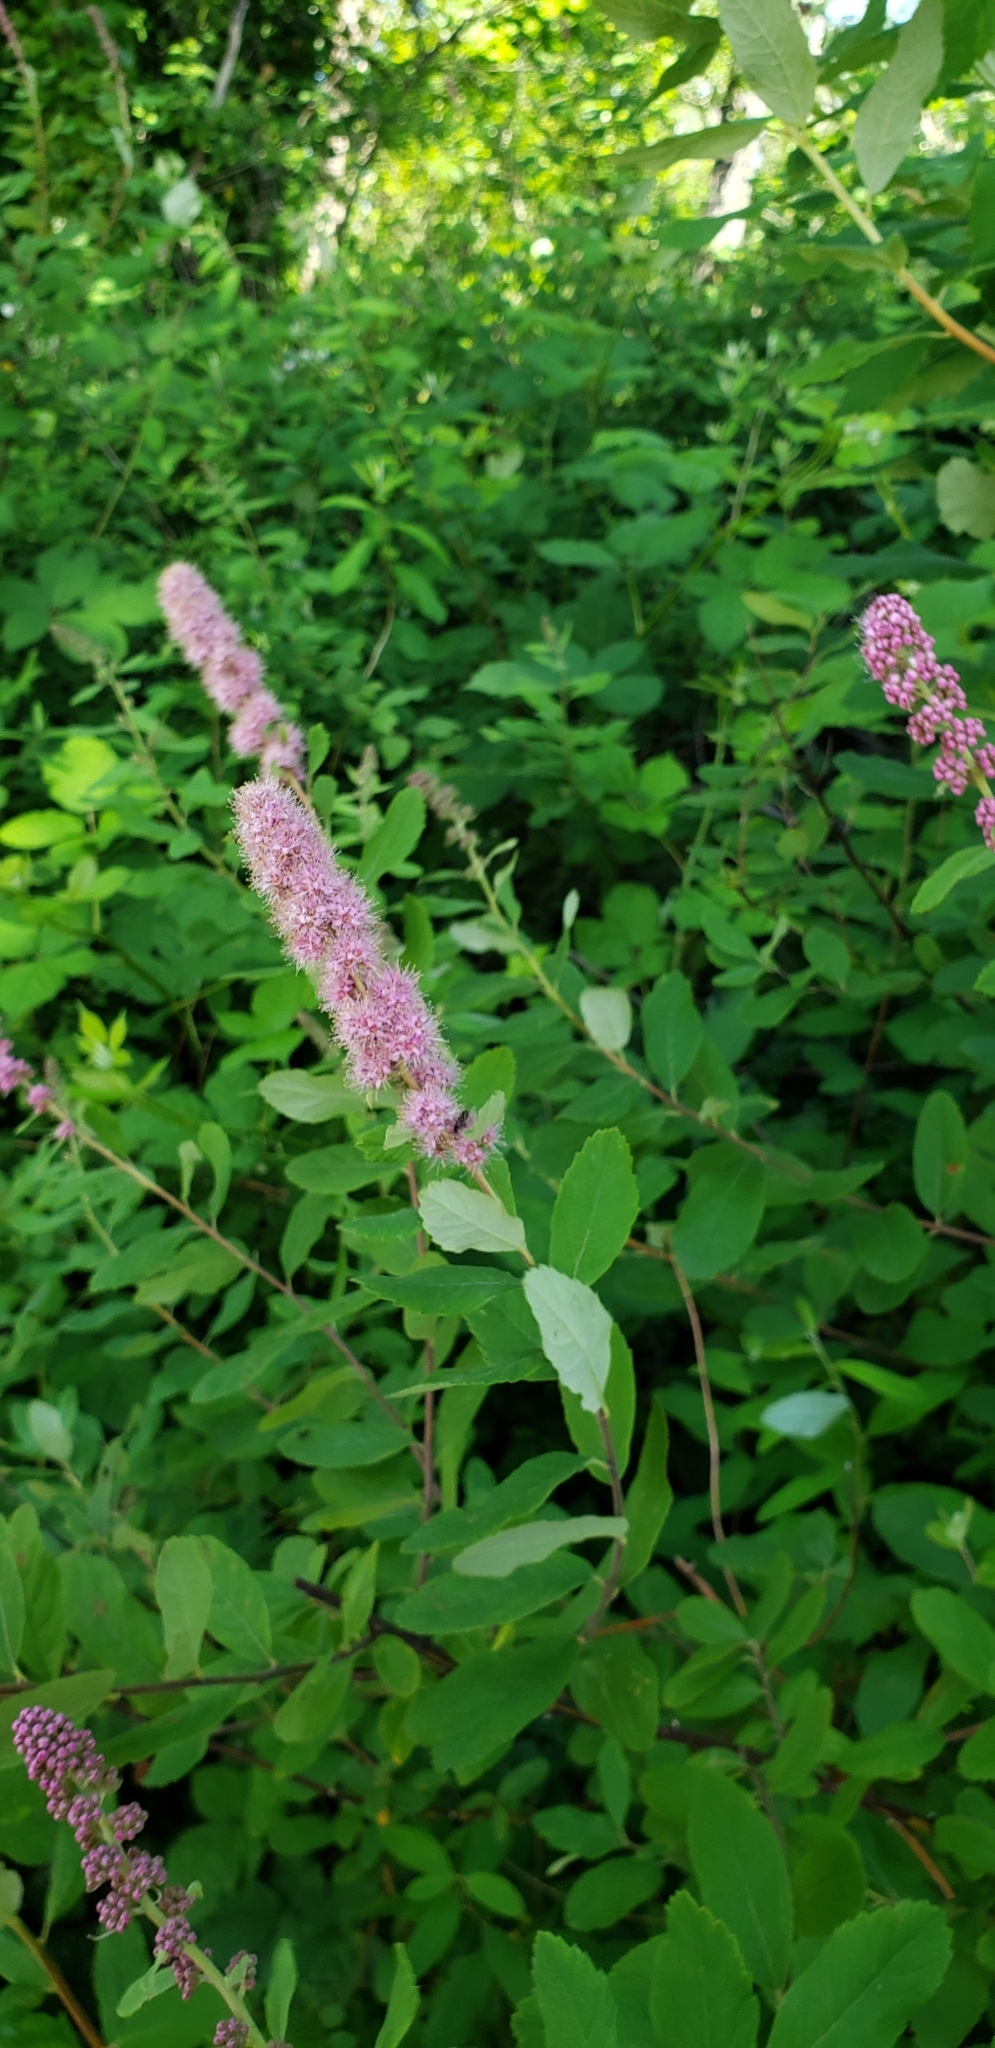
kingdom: Plantae
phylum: Tracheophyta
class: Magnoliopsida
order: Rosales
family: Rosaceae
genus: Spiraea
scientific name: Spiraea douglasii
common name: Steeplebush
